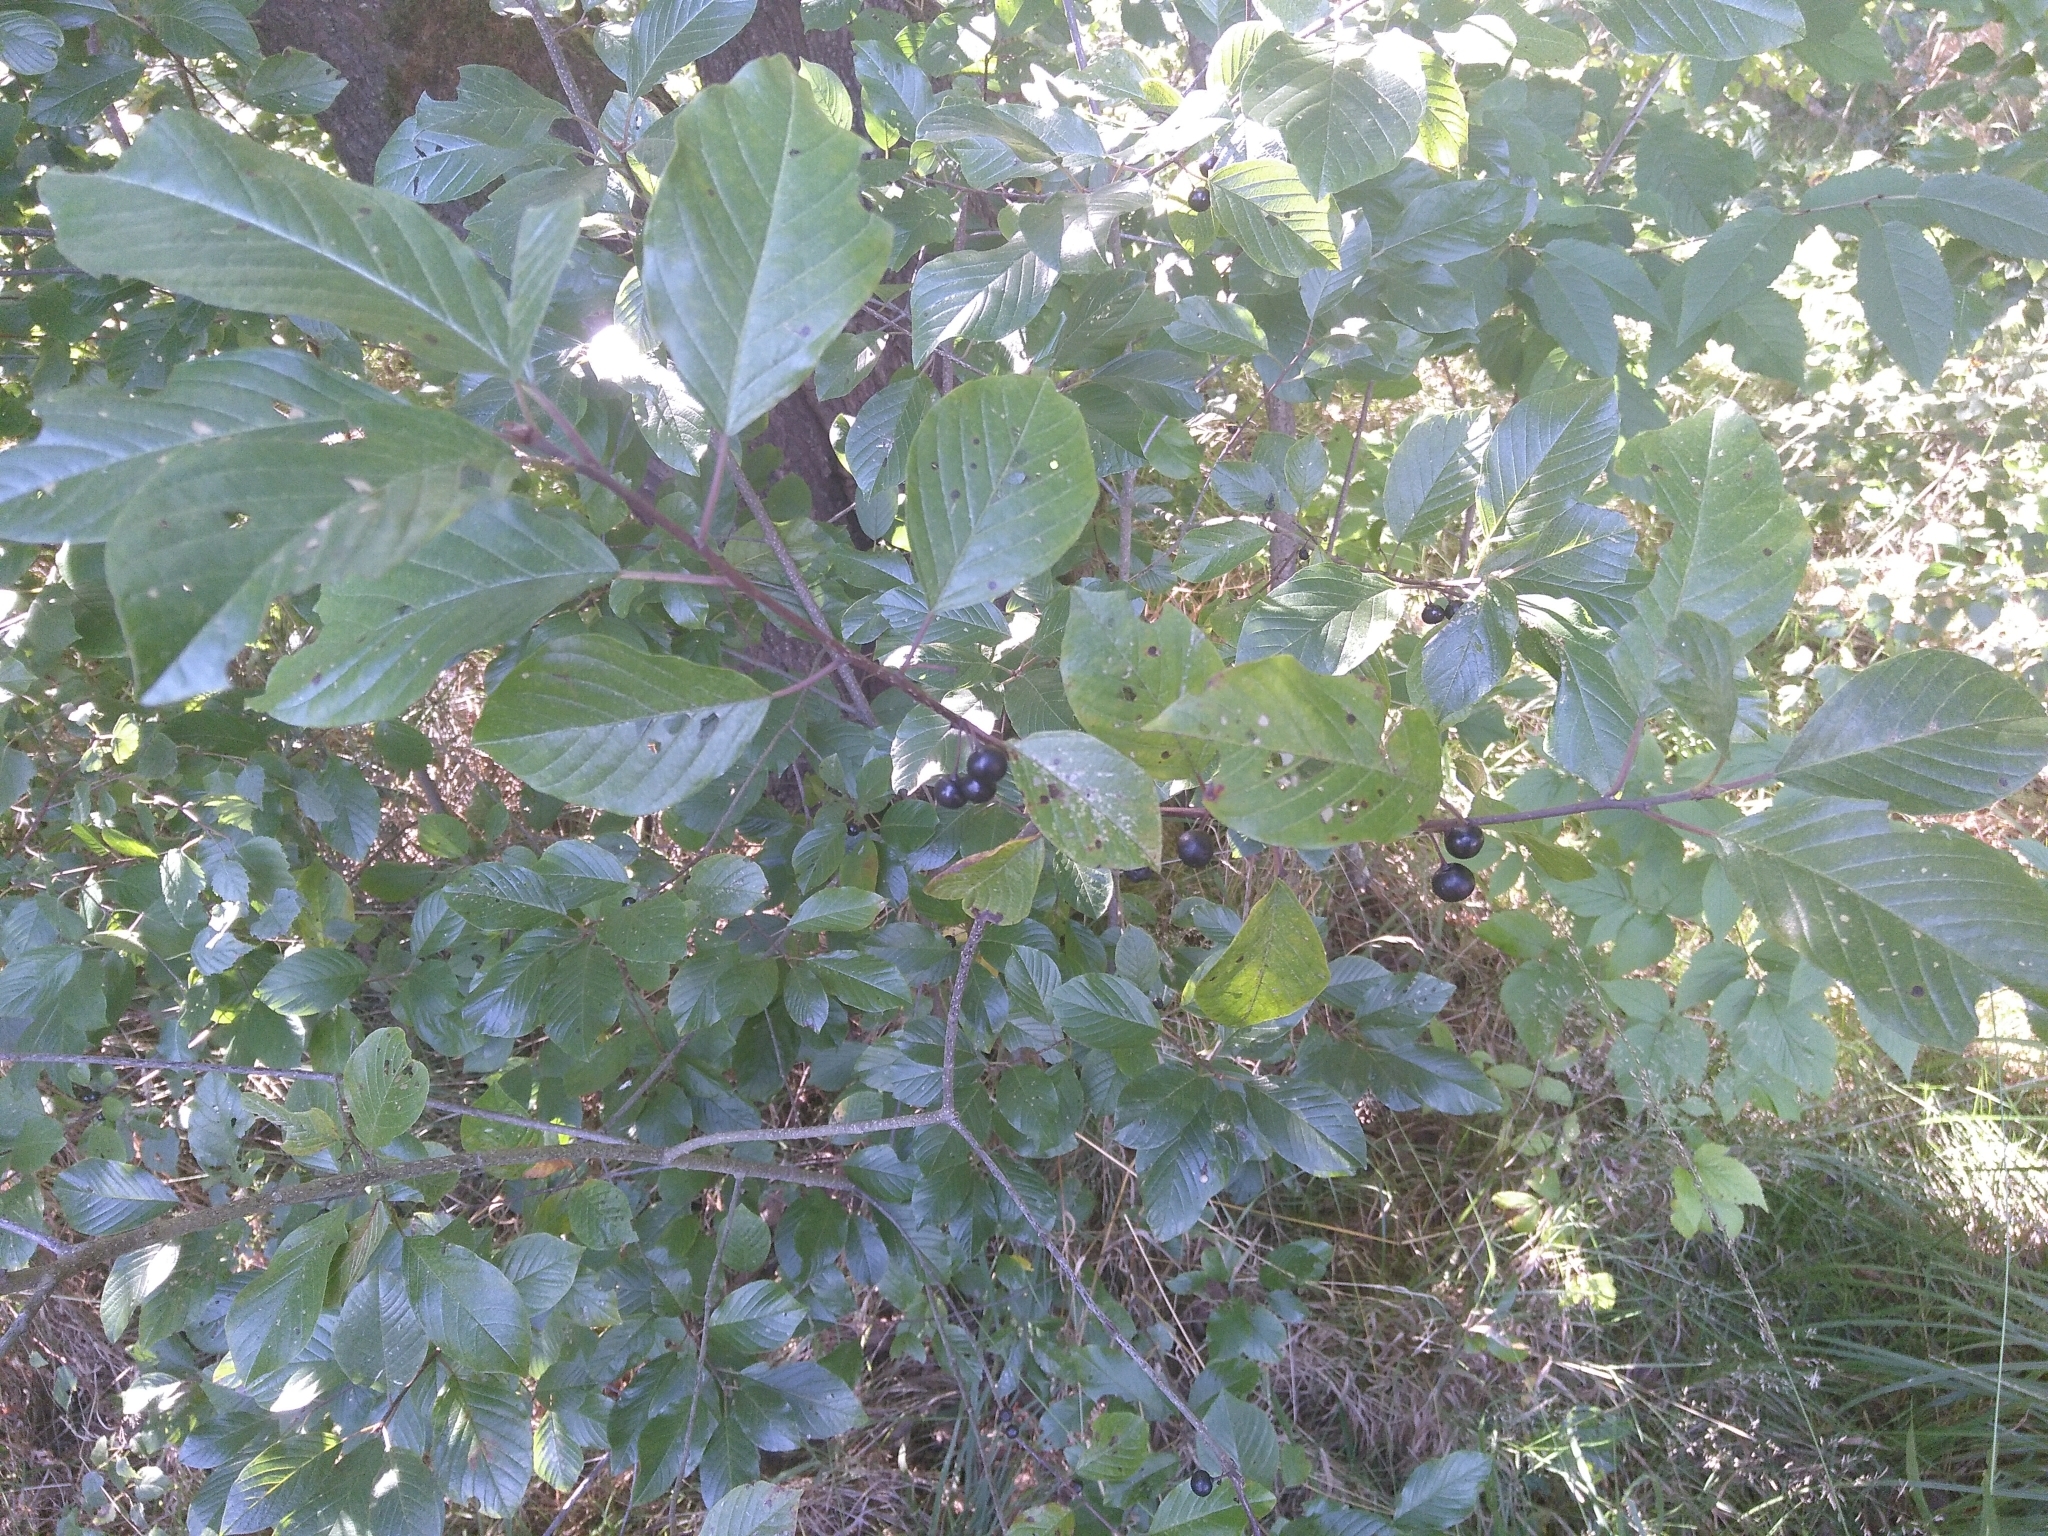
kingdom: Plantae
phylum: Tracheophyta
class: Magnoliopsida
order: Rosales
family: Rhamnaceae
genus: Frangula
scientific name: Frangula alnus
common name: Alder buckthorn
